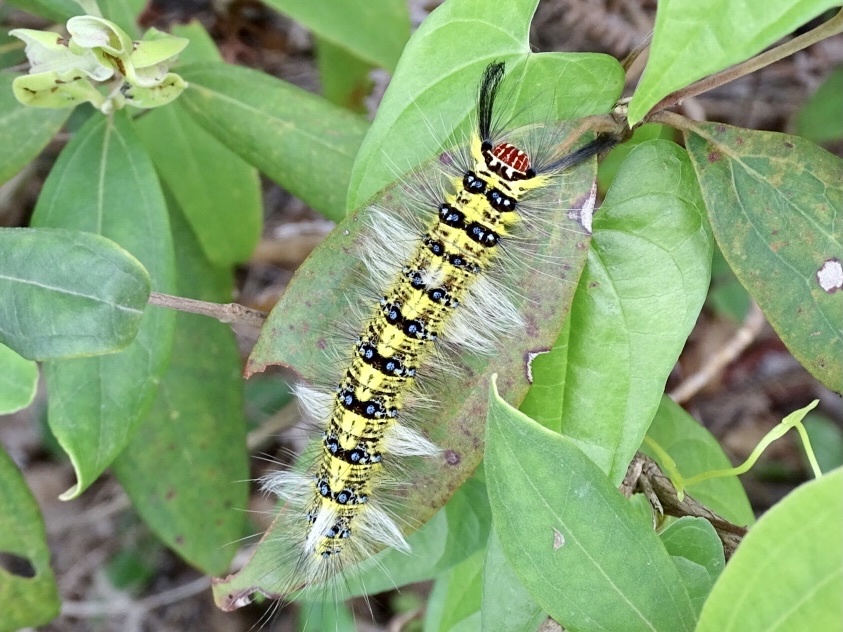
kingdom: Animalia
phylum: Arthropoda
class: Insecta
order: Lepidoptera
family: Lasiocampidae
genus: Trabala
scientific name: Trabala pallida
